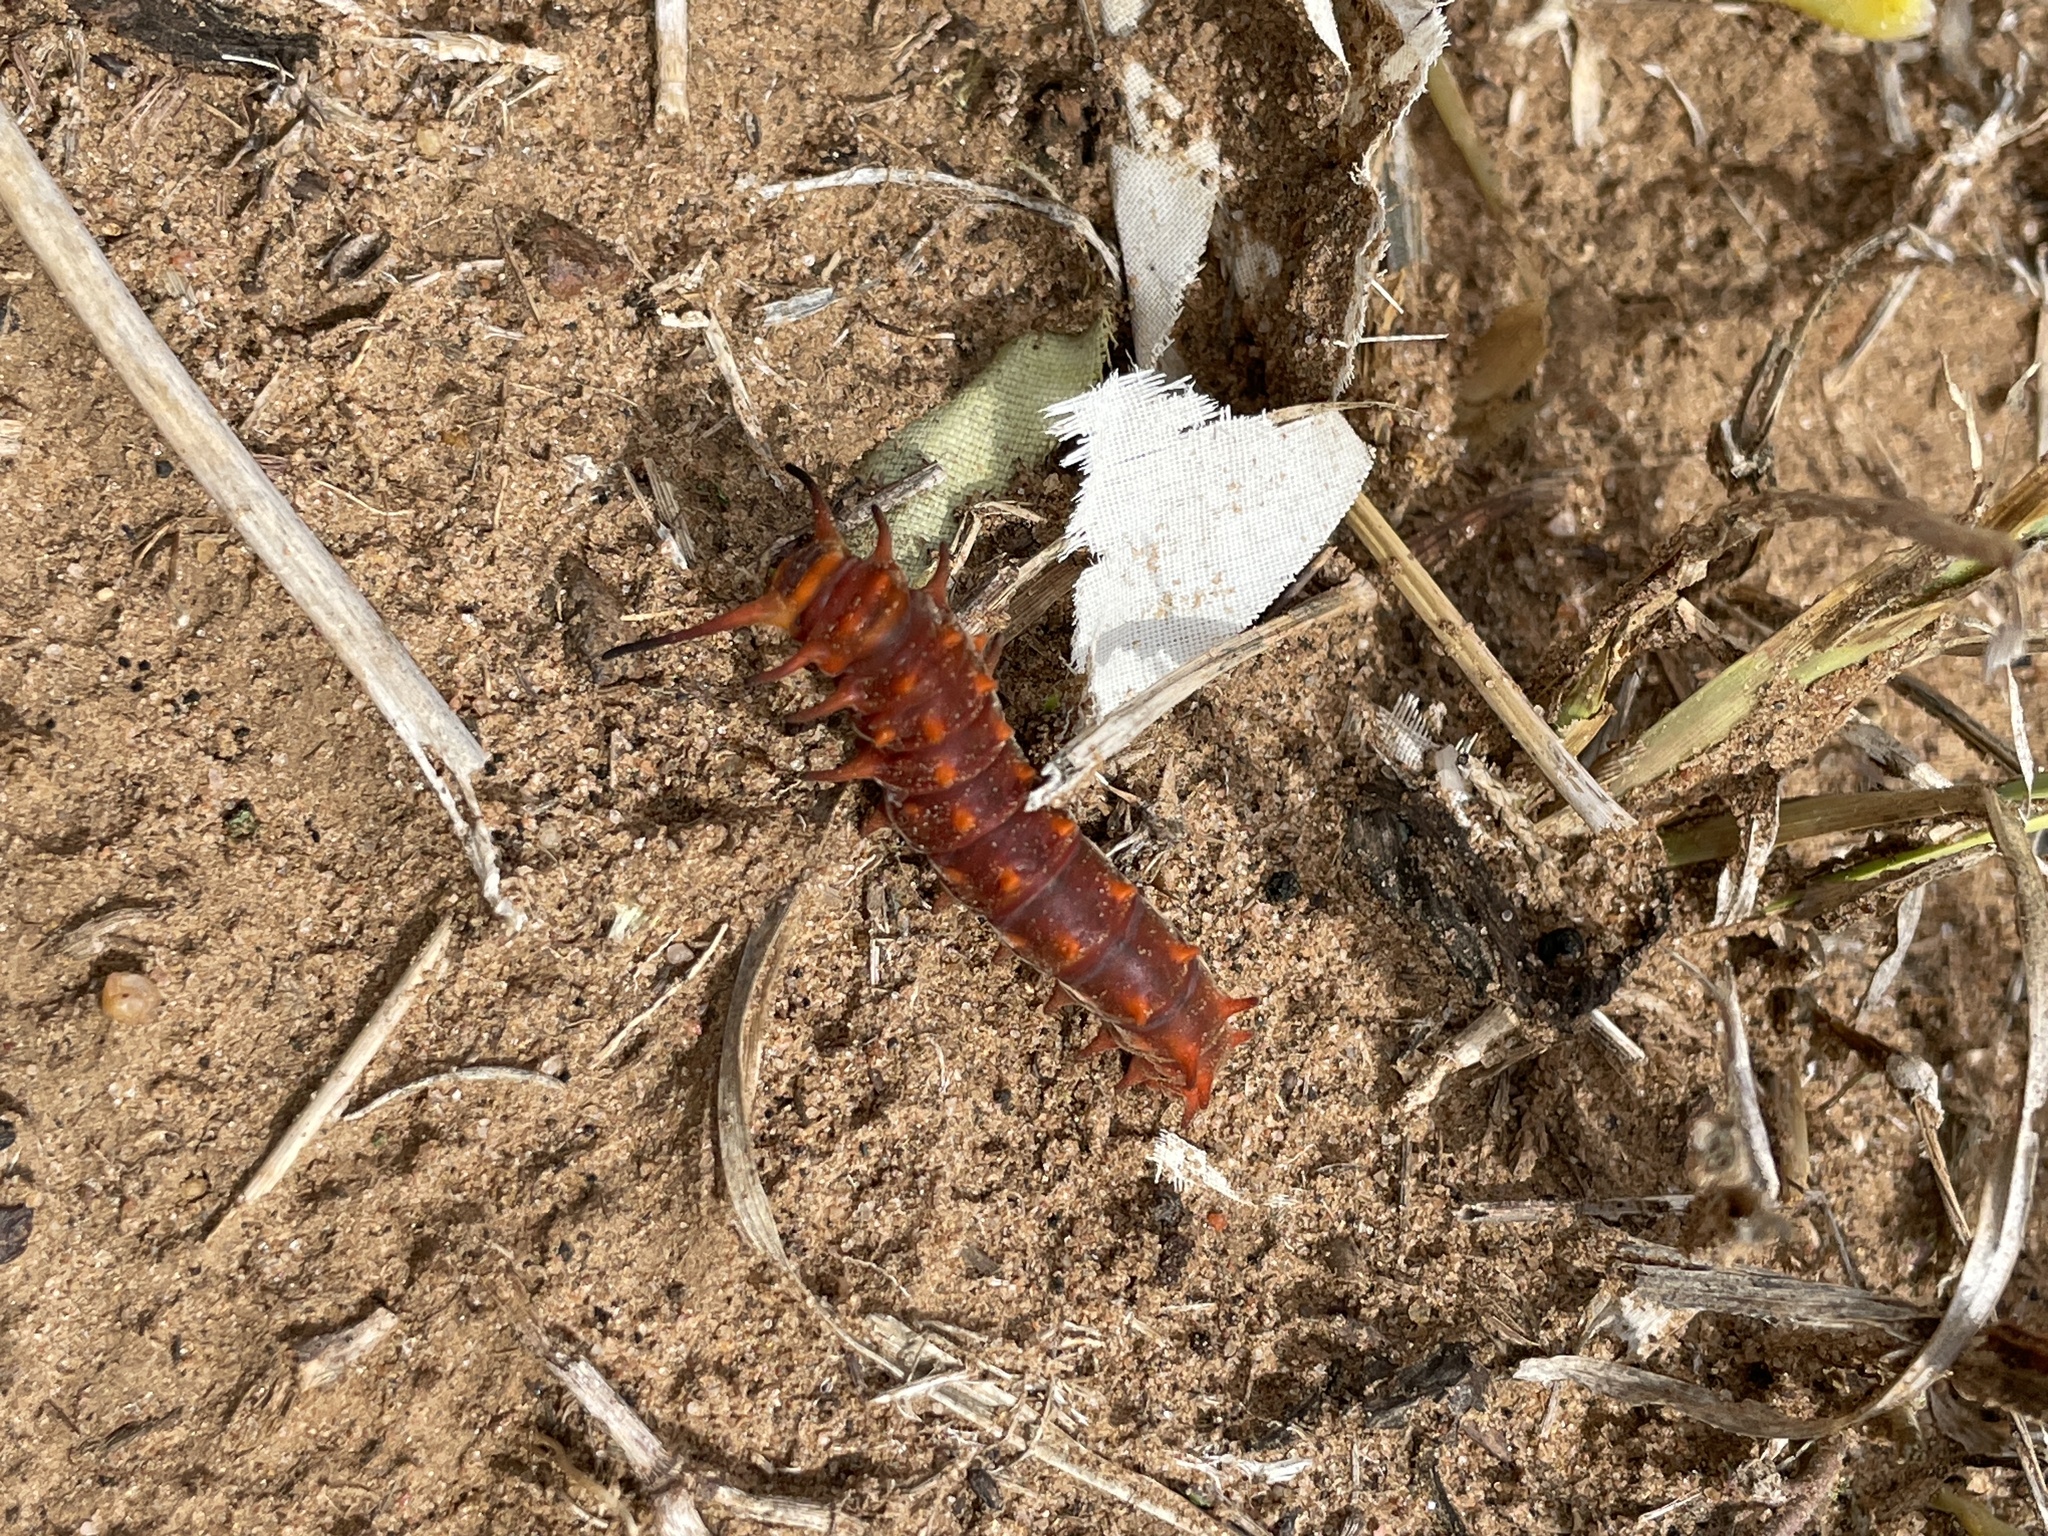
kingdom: Animalia
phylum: Arthropoda
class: Insecta
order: Lepidoptera
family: Papilionidae
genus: Battus
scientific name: Battus philenor
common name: Pipevine swallowtail
